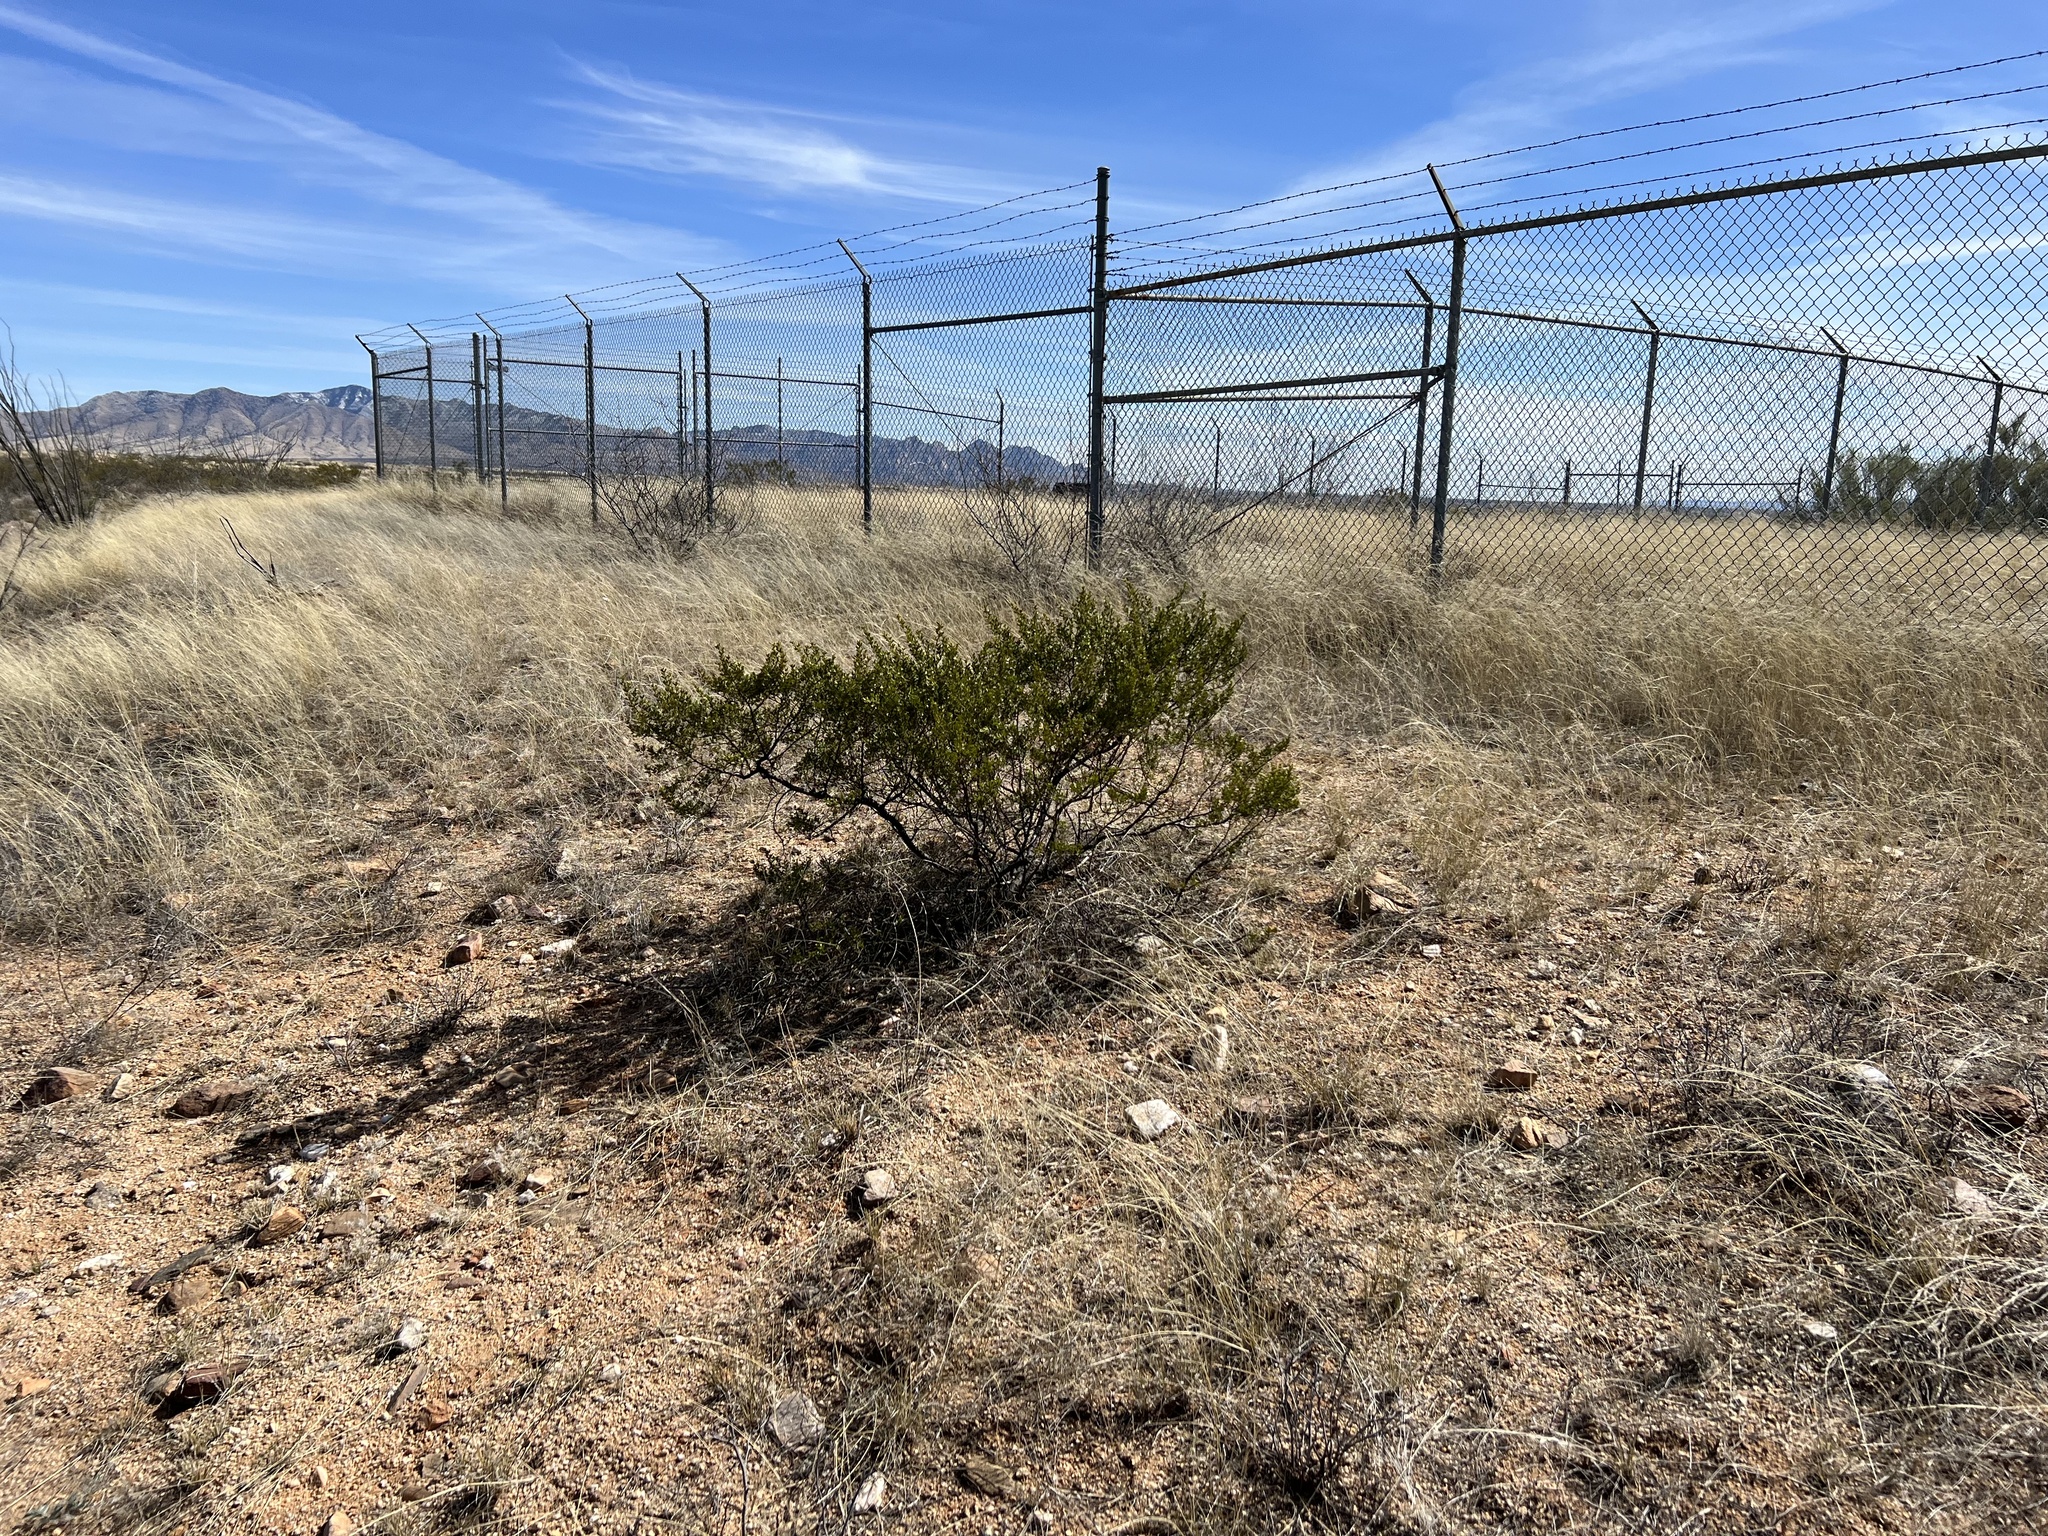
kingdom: Plantae
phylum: Tracheophyta
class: Magnoliopsida
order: Zygophyllales
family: Zygophyllaceae
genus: Larrea
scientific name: Larrea tridentata
